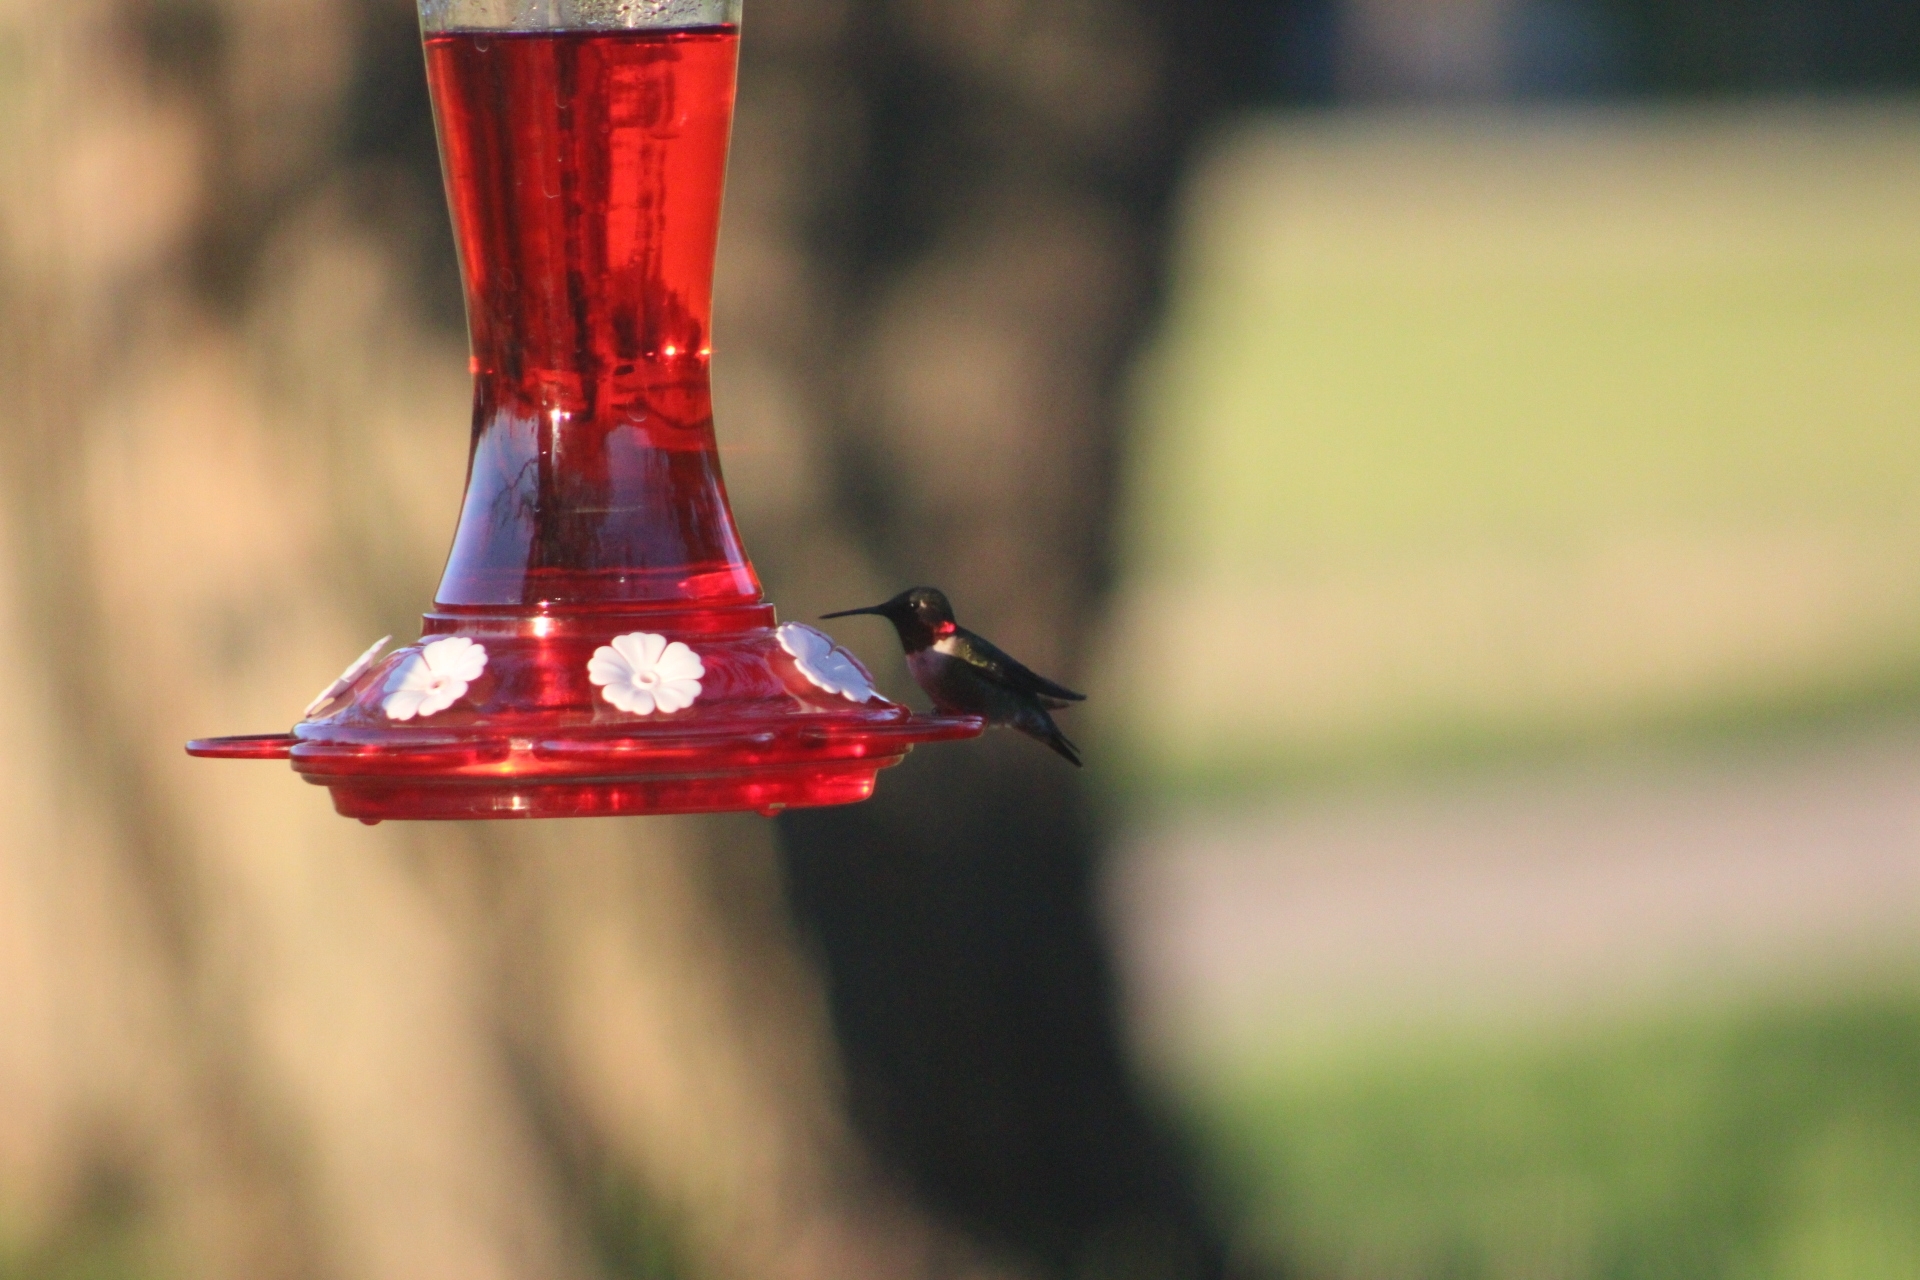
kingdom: Animalia
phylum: Chordata
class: Aves
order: Apodiformes
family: Trochilidae
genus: Archilochus
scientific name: Archilochus colubris
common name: Ruby-throated hummingbird
